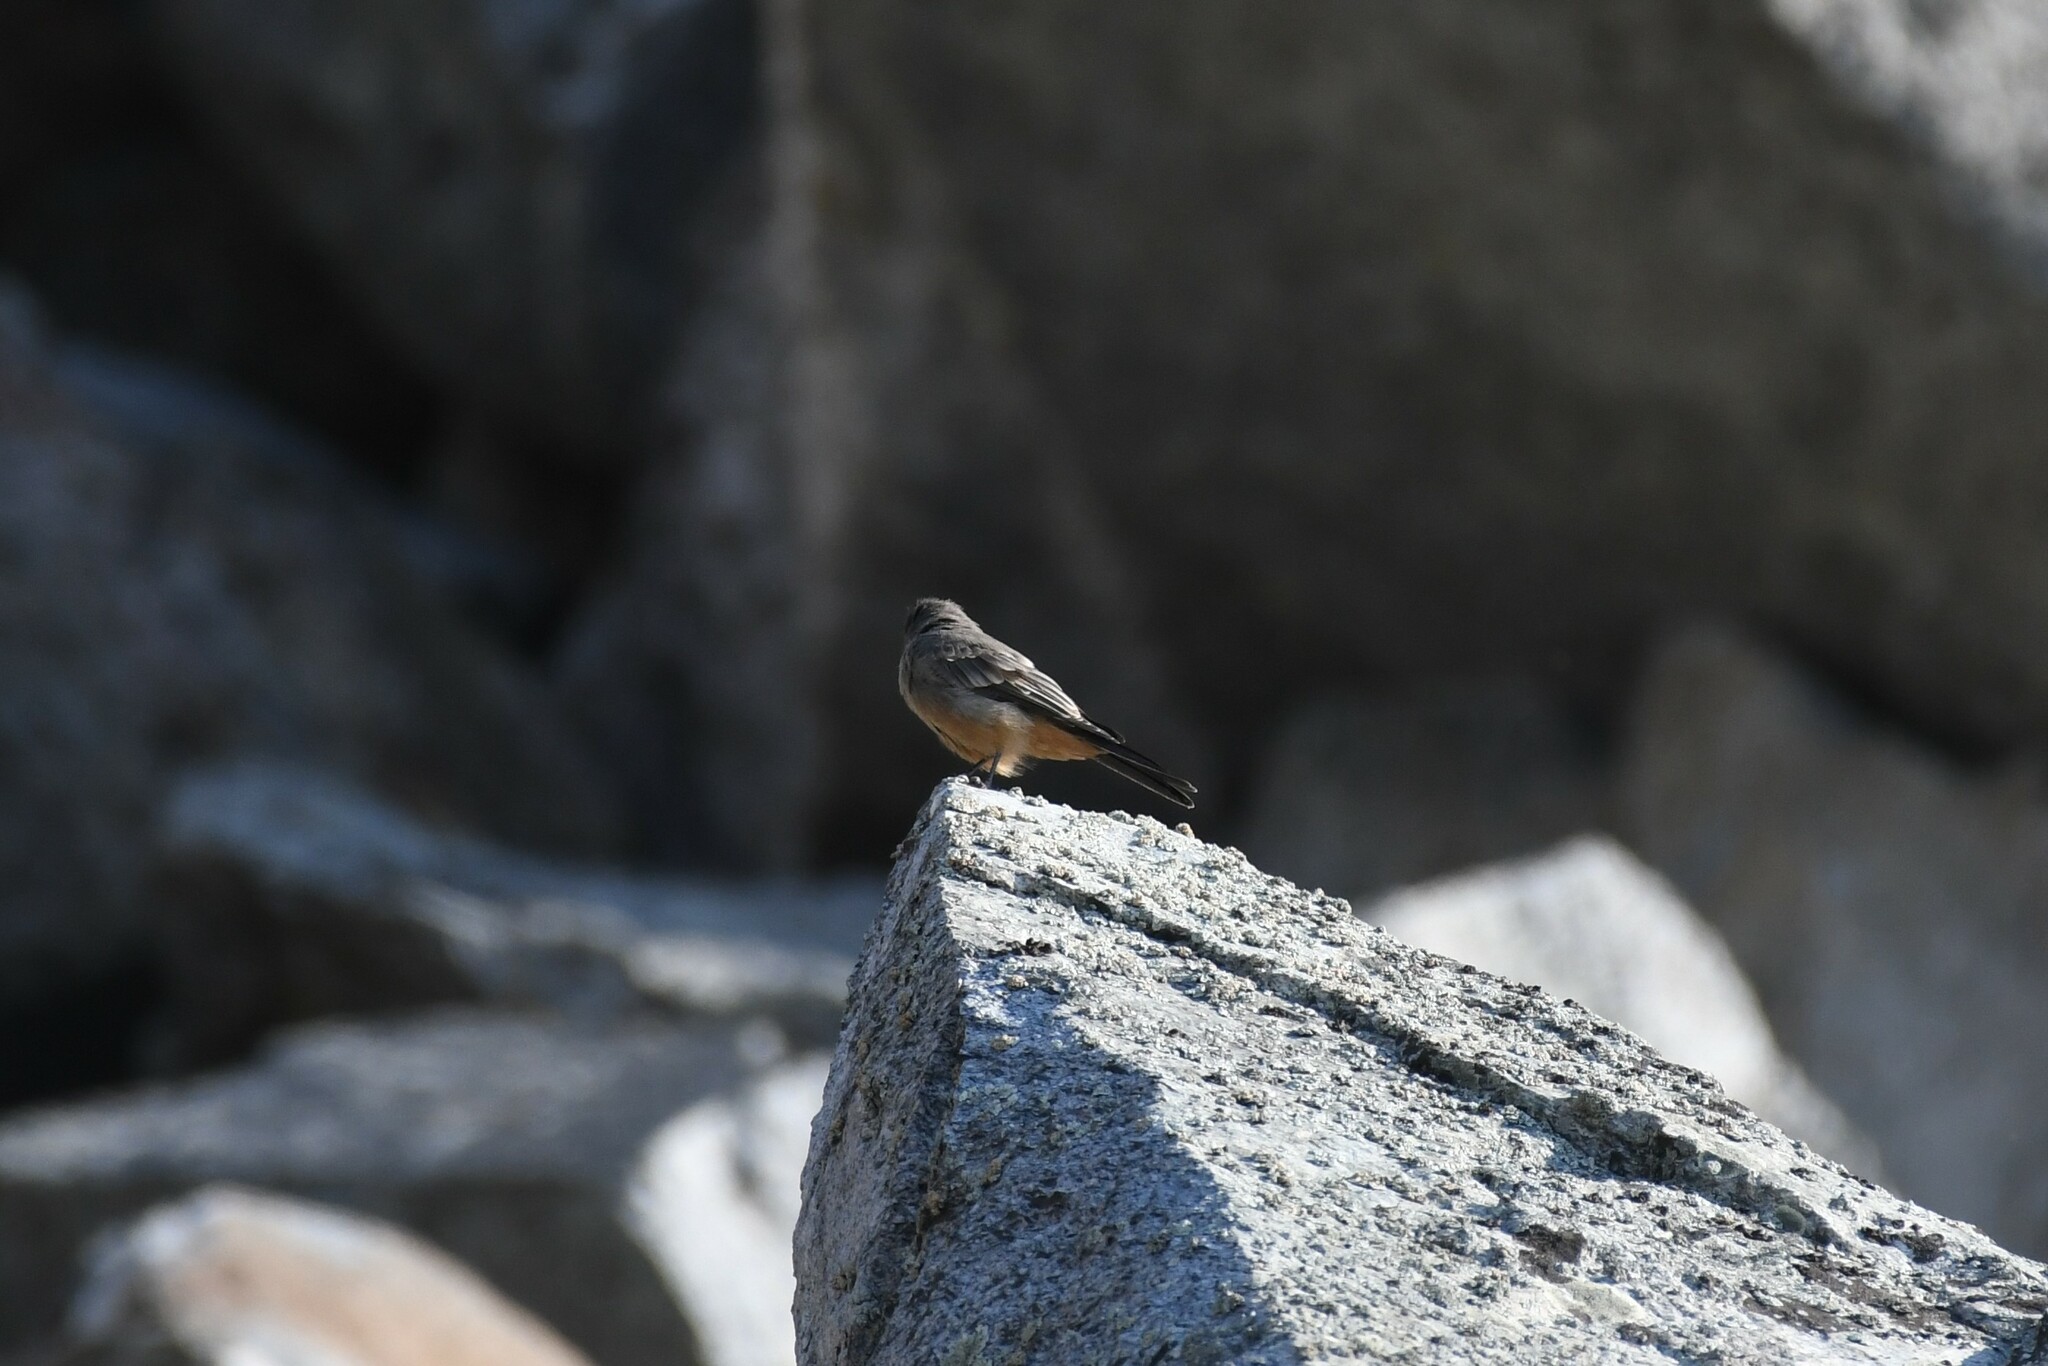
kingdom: Animalia
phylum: Chordata
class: Aves
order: Passeriformes
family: Tyrannidae
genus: Sayornis
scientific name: Sayornis saya
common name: Say's phoebe
